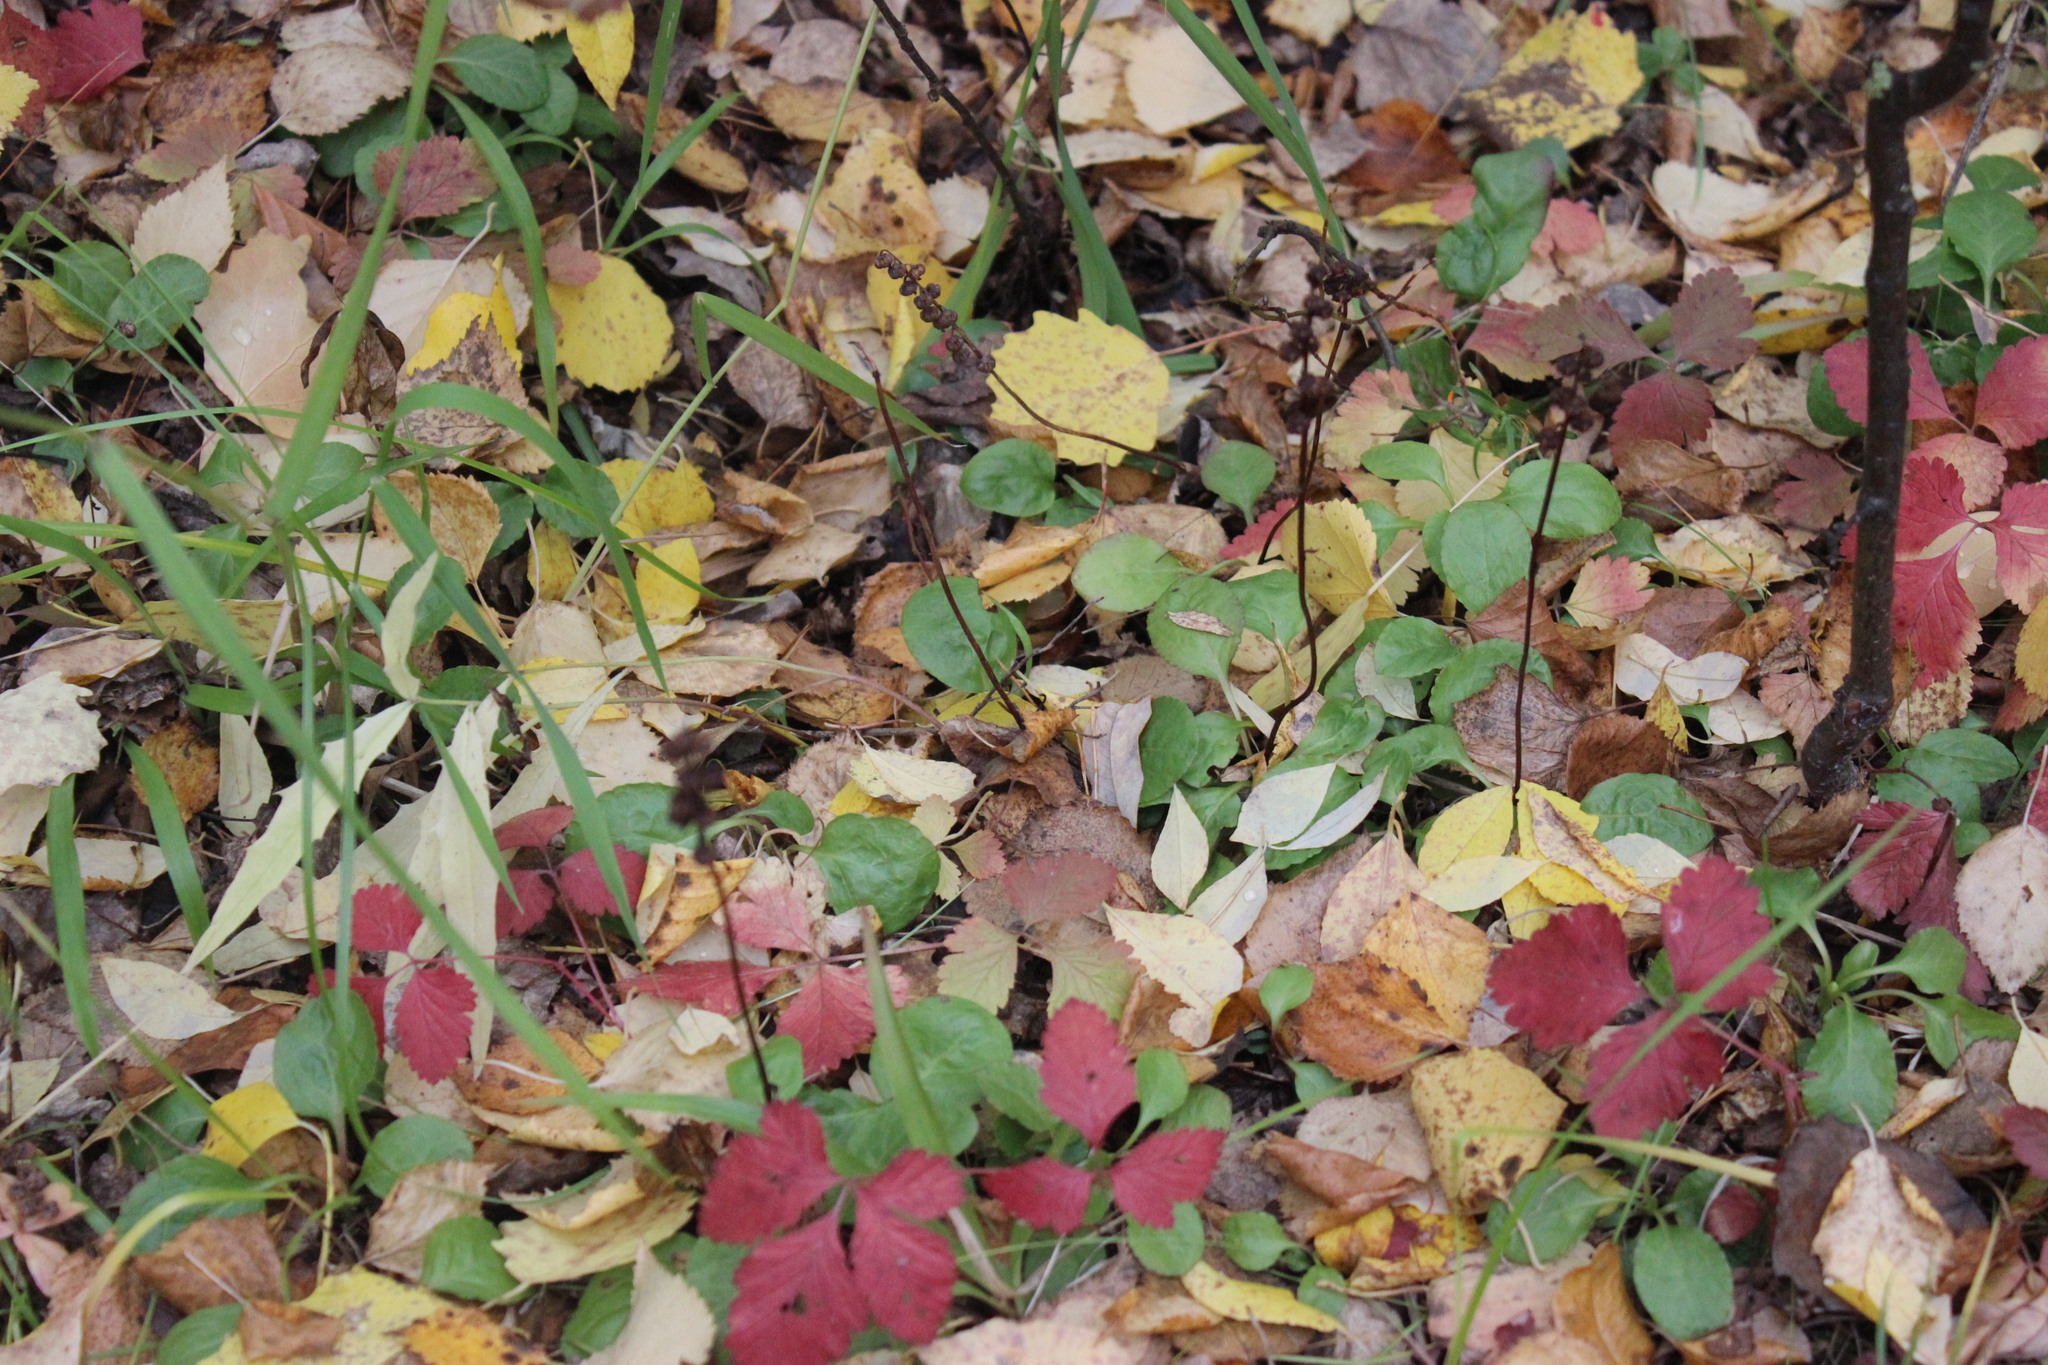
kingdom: Plantae
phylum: Tracheophyta
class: Magnoliopsida
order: Ericales
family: Ericaceae
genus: Orthilia
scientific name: Orthilia secunda
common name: One-sided orthilia
